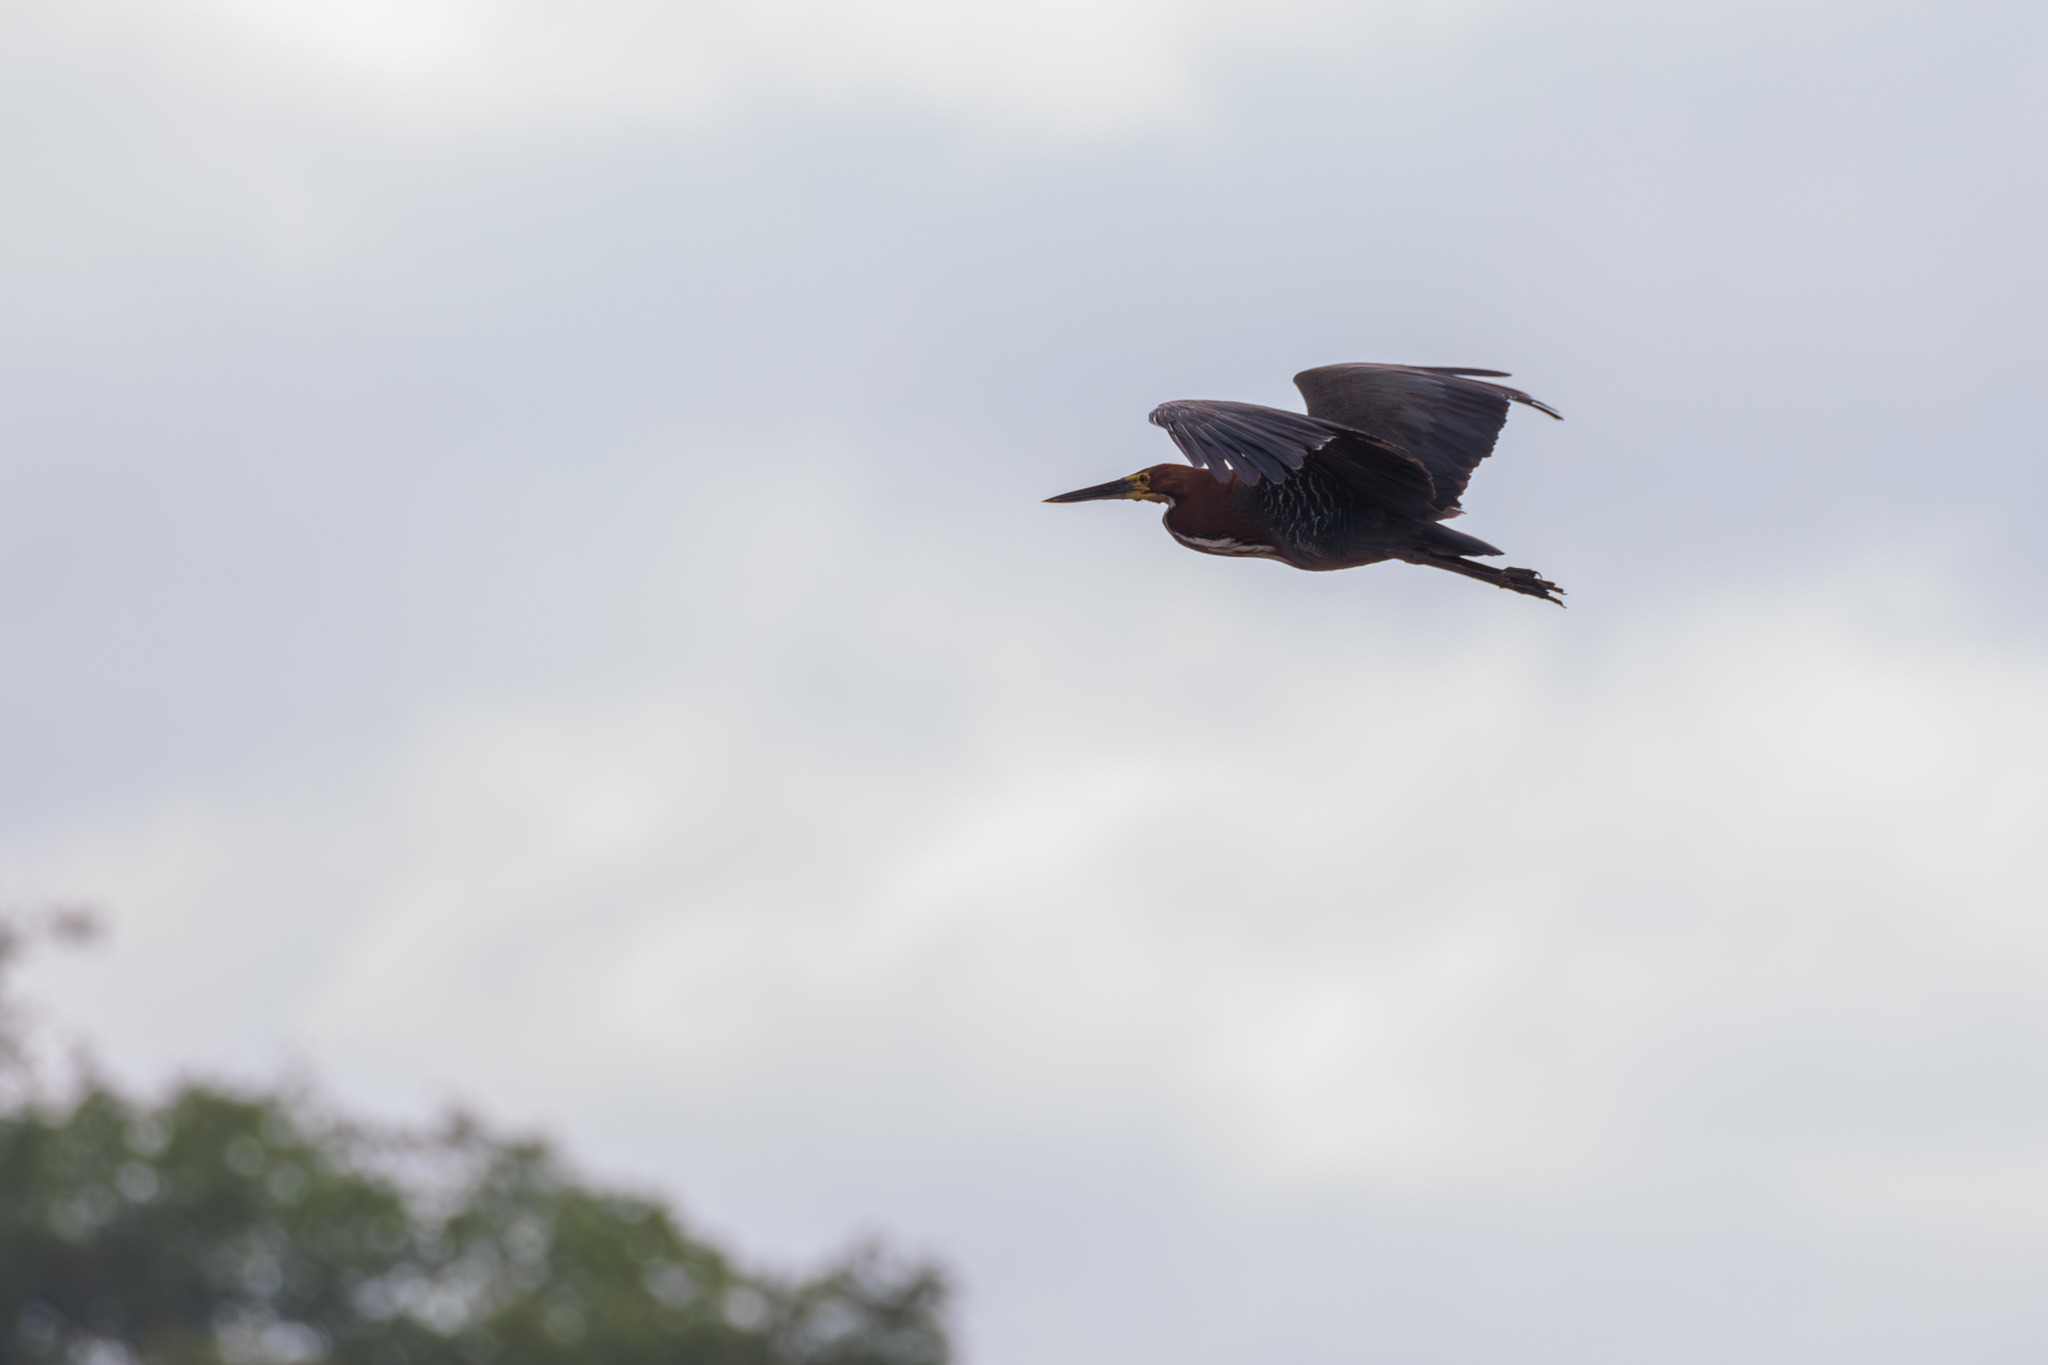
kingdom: Animalia
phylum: Chordata
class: Aves
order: Pelecaniformes
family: Ardeidae
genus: Tigrisoma
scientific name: Tigrisoma lineatum
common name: Rufescent tiger-heron
